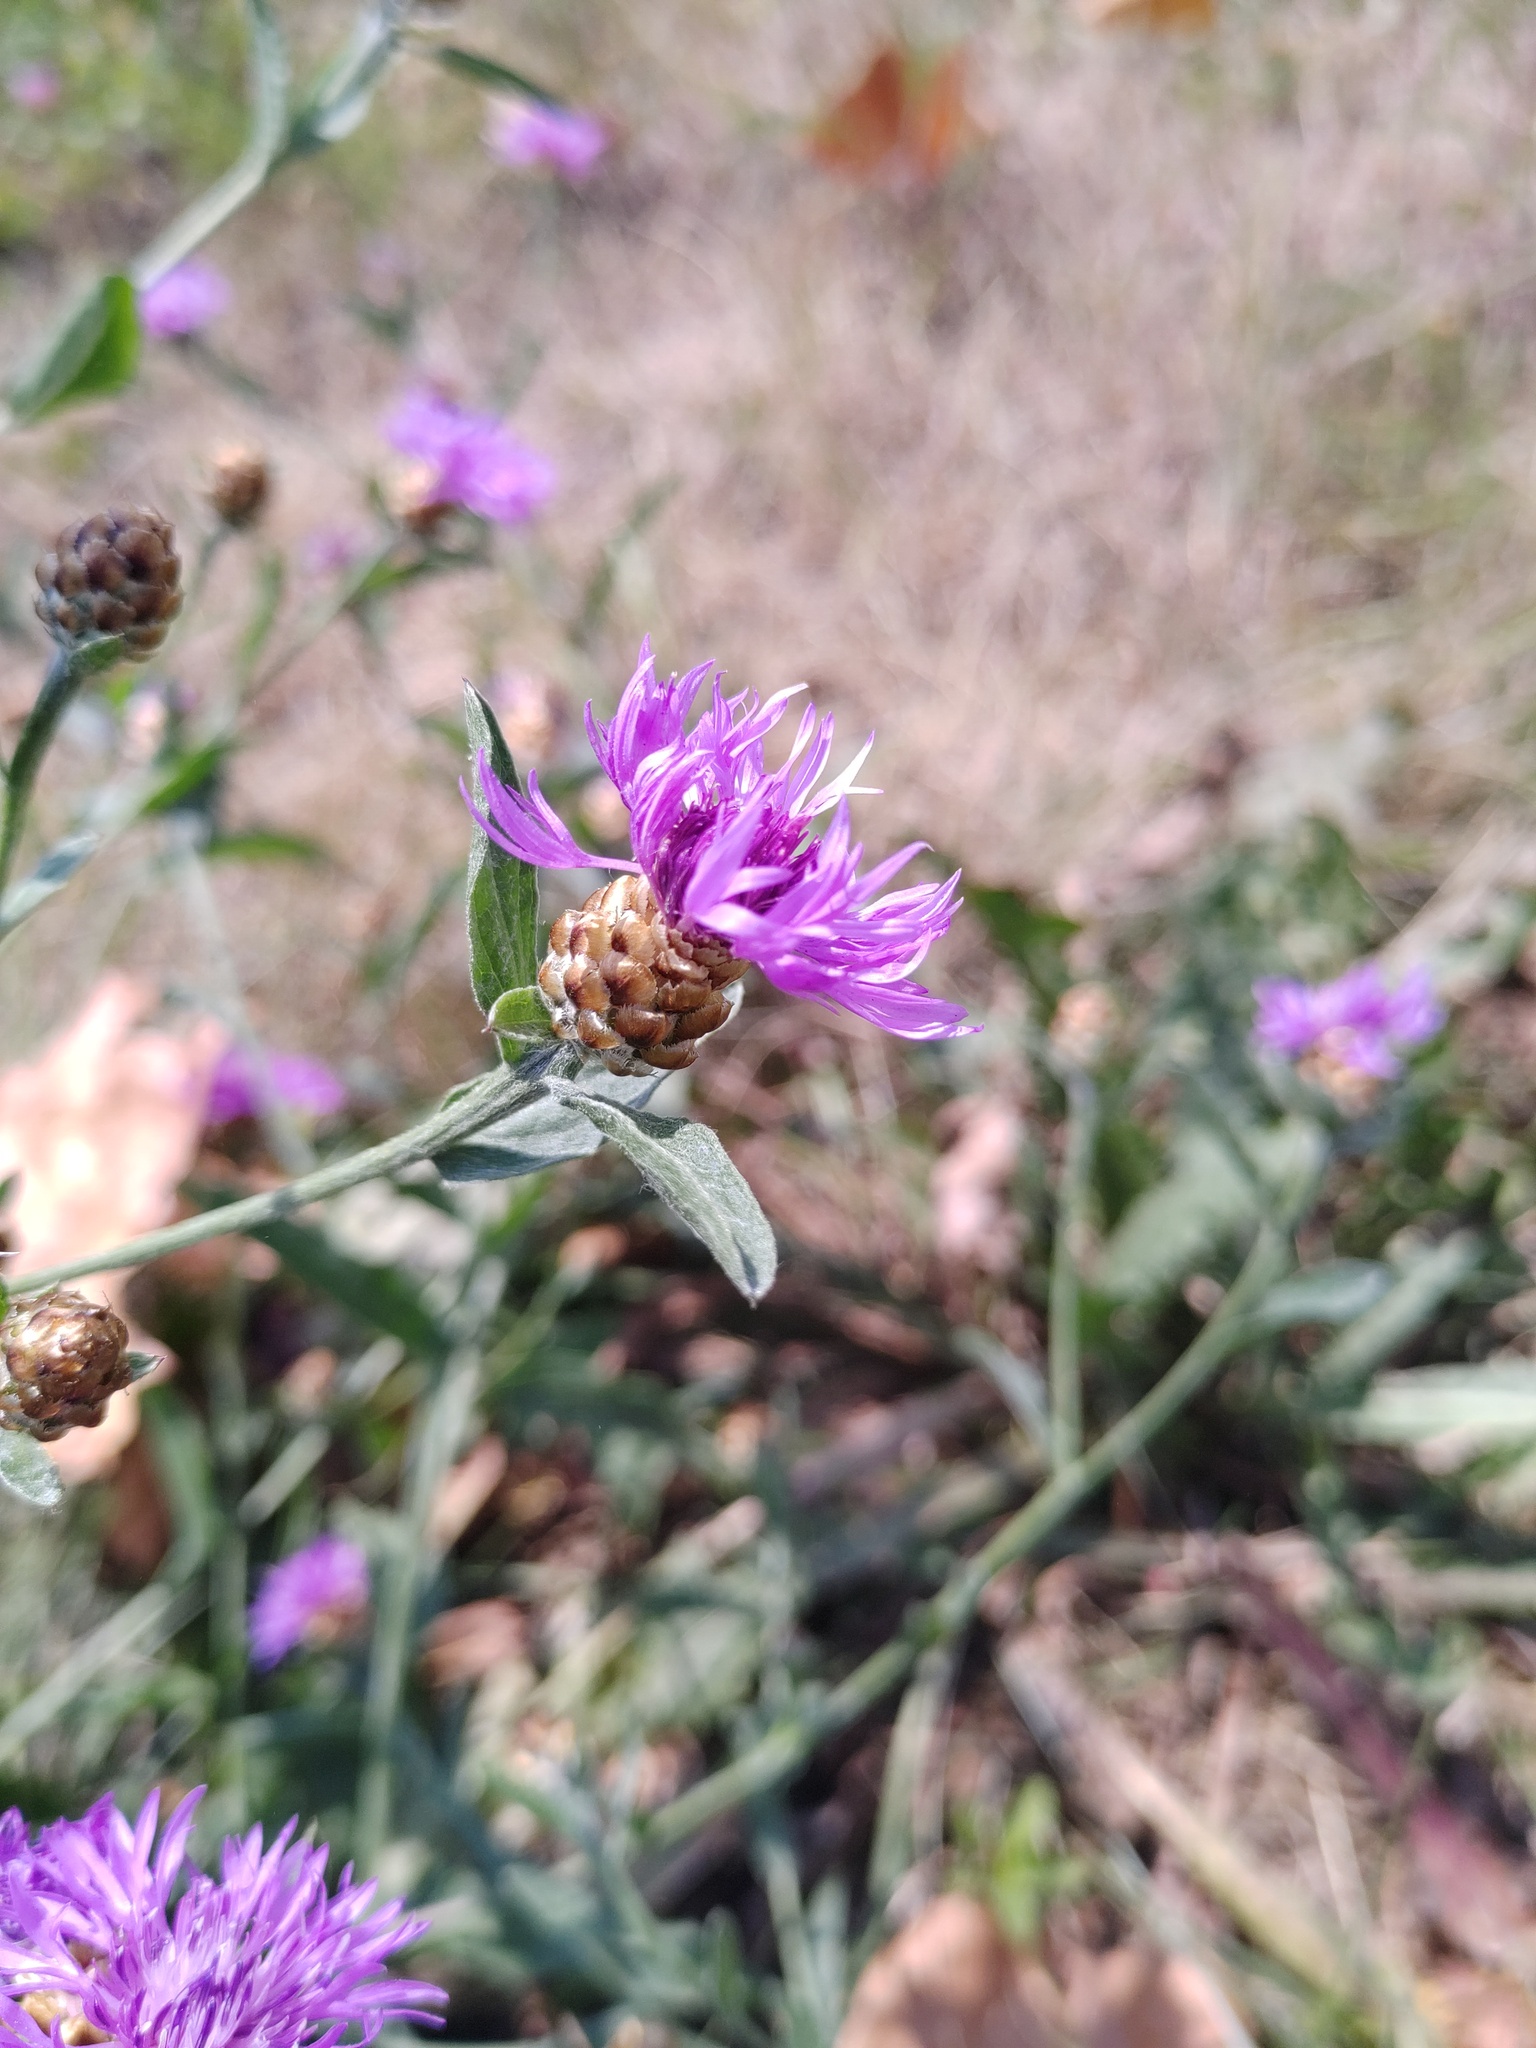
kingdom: Plantae
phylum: Tracheophyta
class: Magnoliopsida
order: Asterales
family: Asteraceae
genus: Centaurea
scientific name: Centaurea jacea
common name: Brown knapweed
